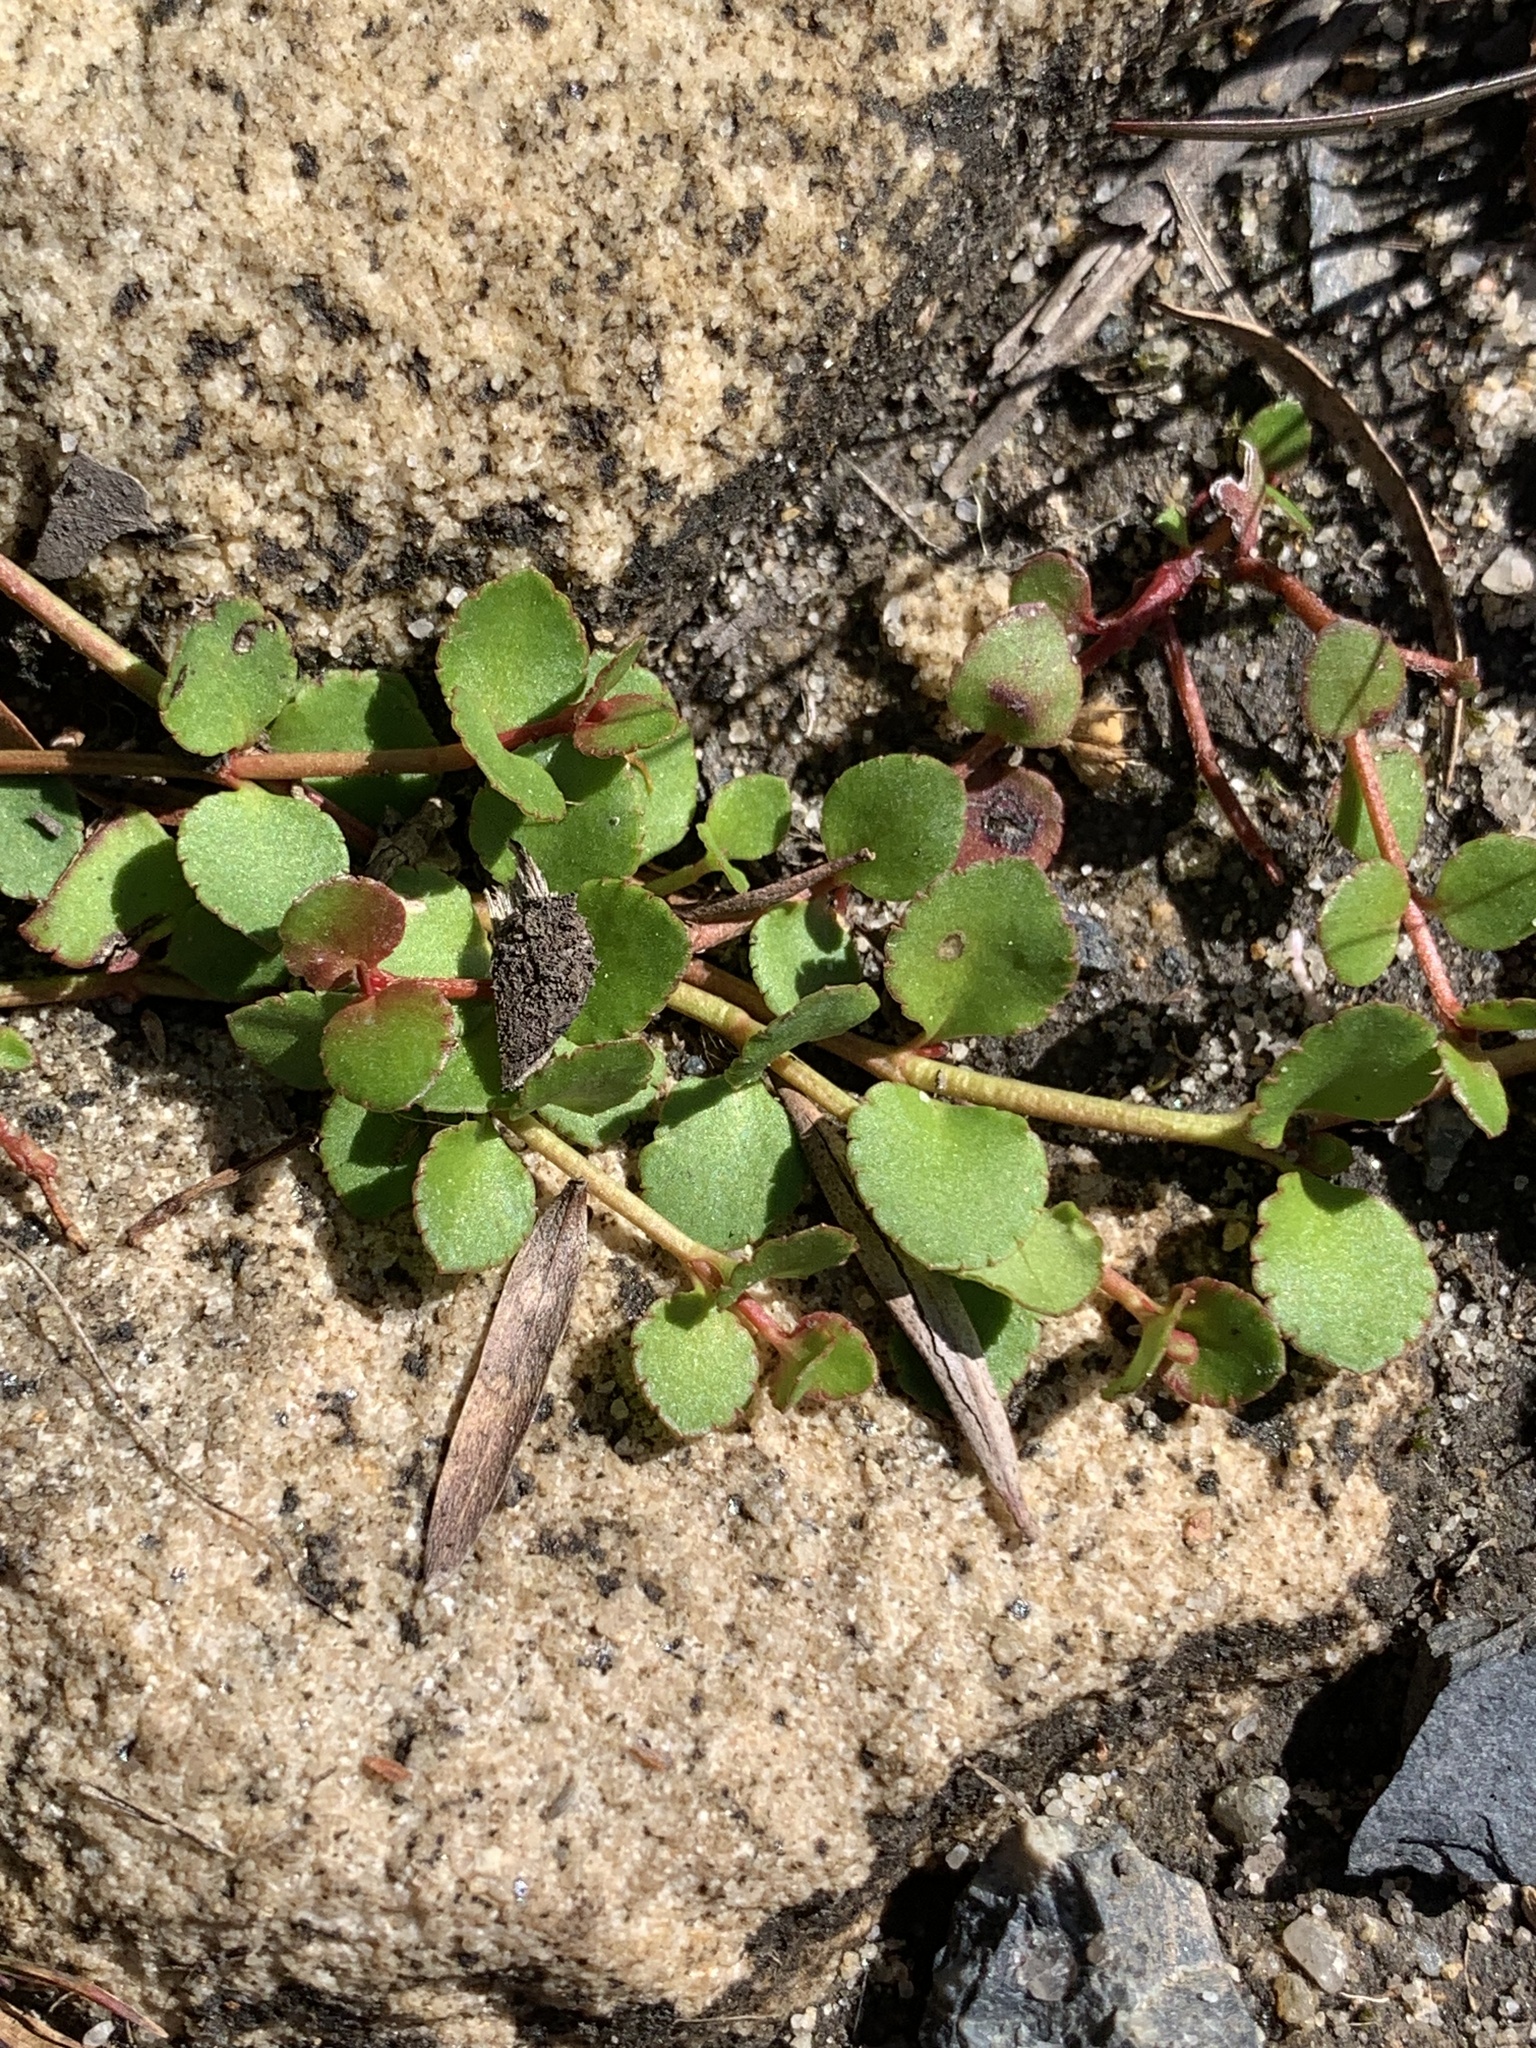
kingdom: Plantae
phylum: Tracheophyta
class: Magnoliopsida
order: Saxifragales
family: Haloragaceae
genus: Gonocarpus
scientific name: Gonocarpus micranthus
